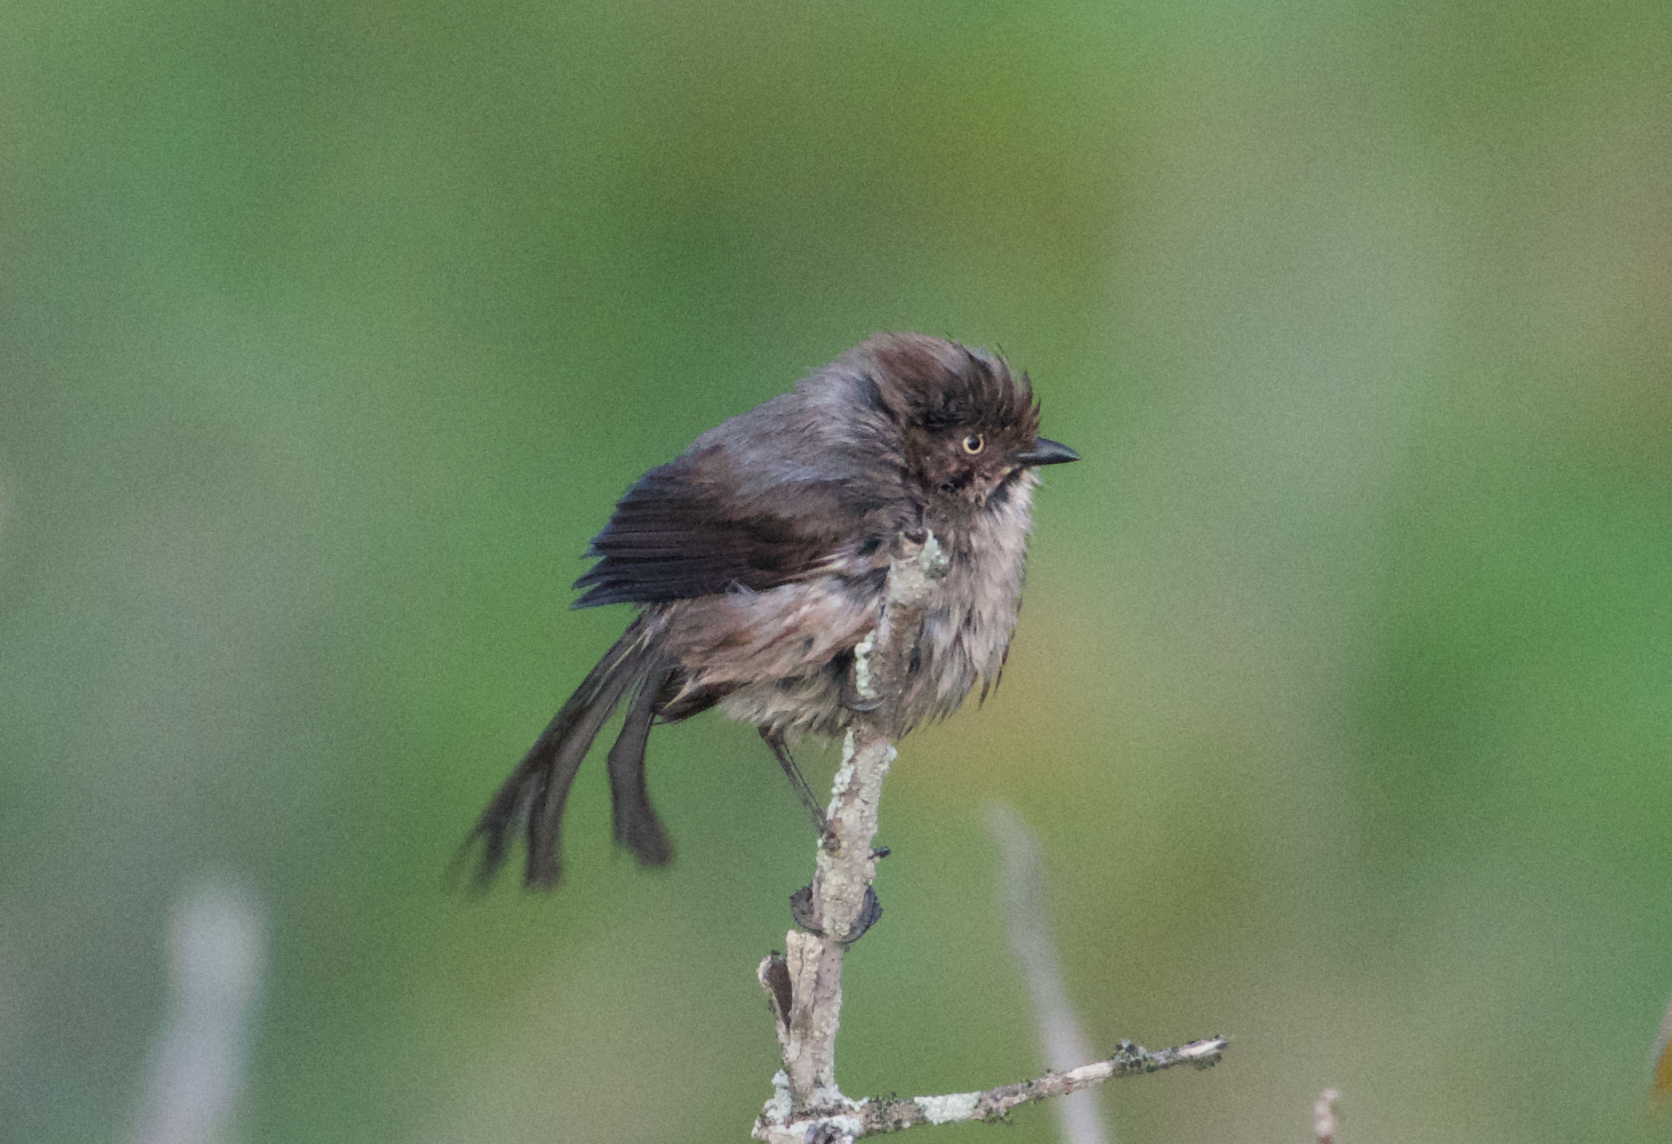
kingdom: Animalia
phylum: Chordata
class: Aves
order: Passeriformes
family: Aegithalidae
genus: Psaltriparus
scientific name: Psaltriparus minimus
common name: American bushtit
